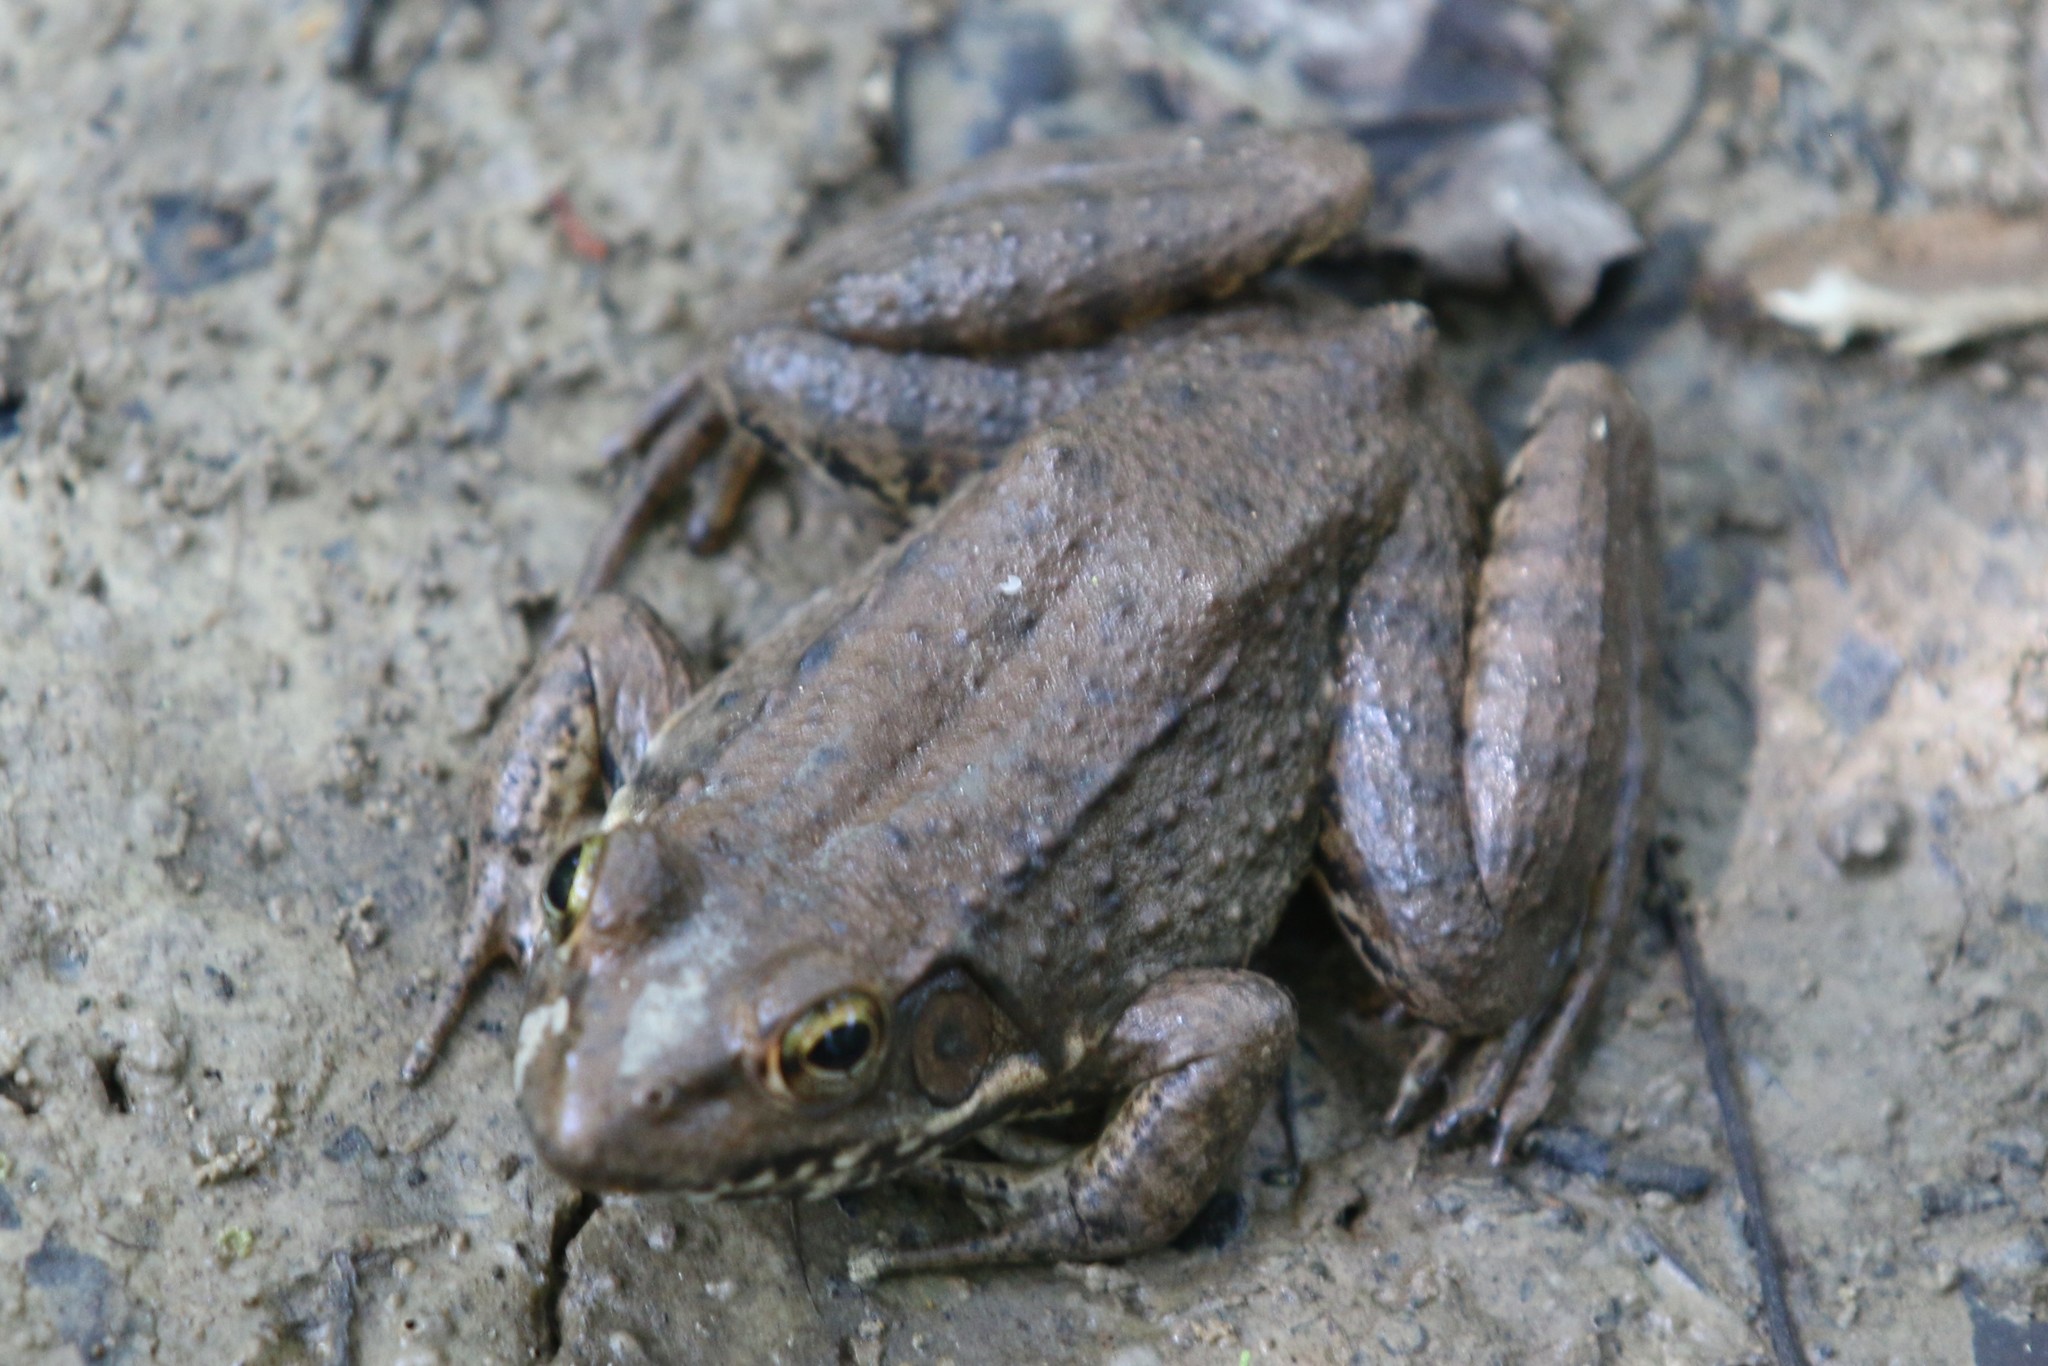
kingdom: Animalia
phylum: Chordata
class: Amphibia
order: Anura
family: Ranidae
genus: Lithobates
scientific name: Lithobates clamitans
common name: Green frog
